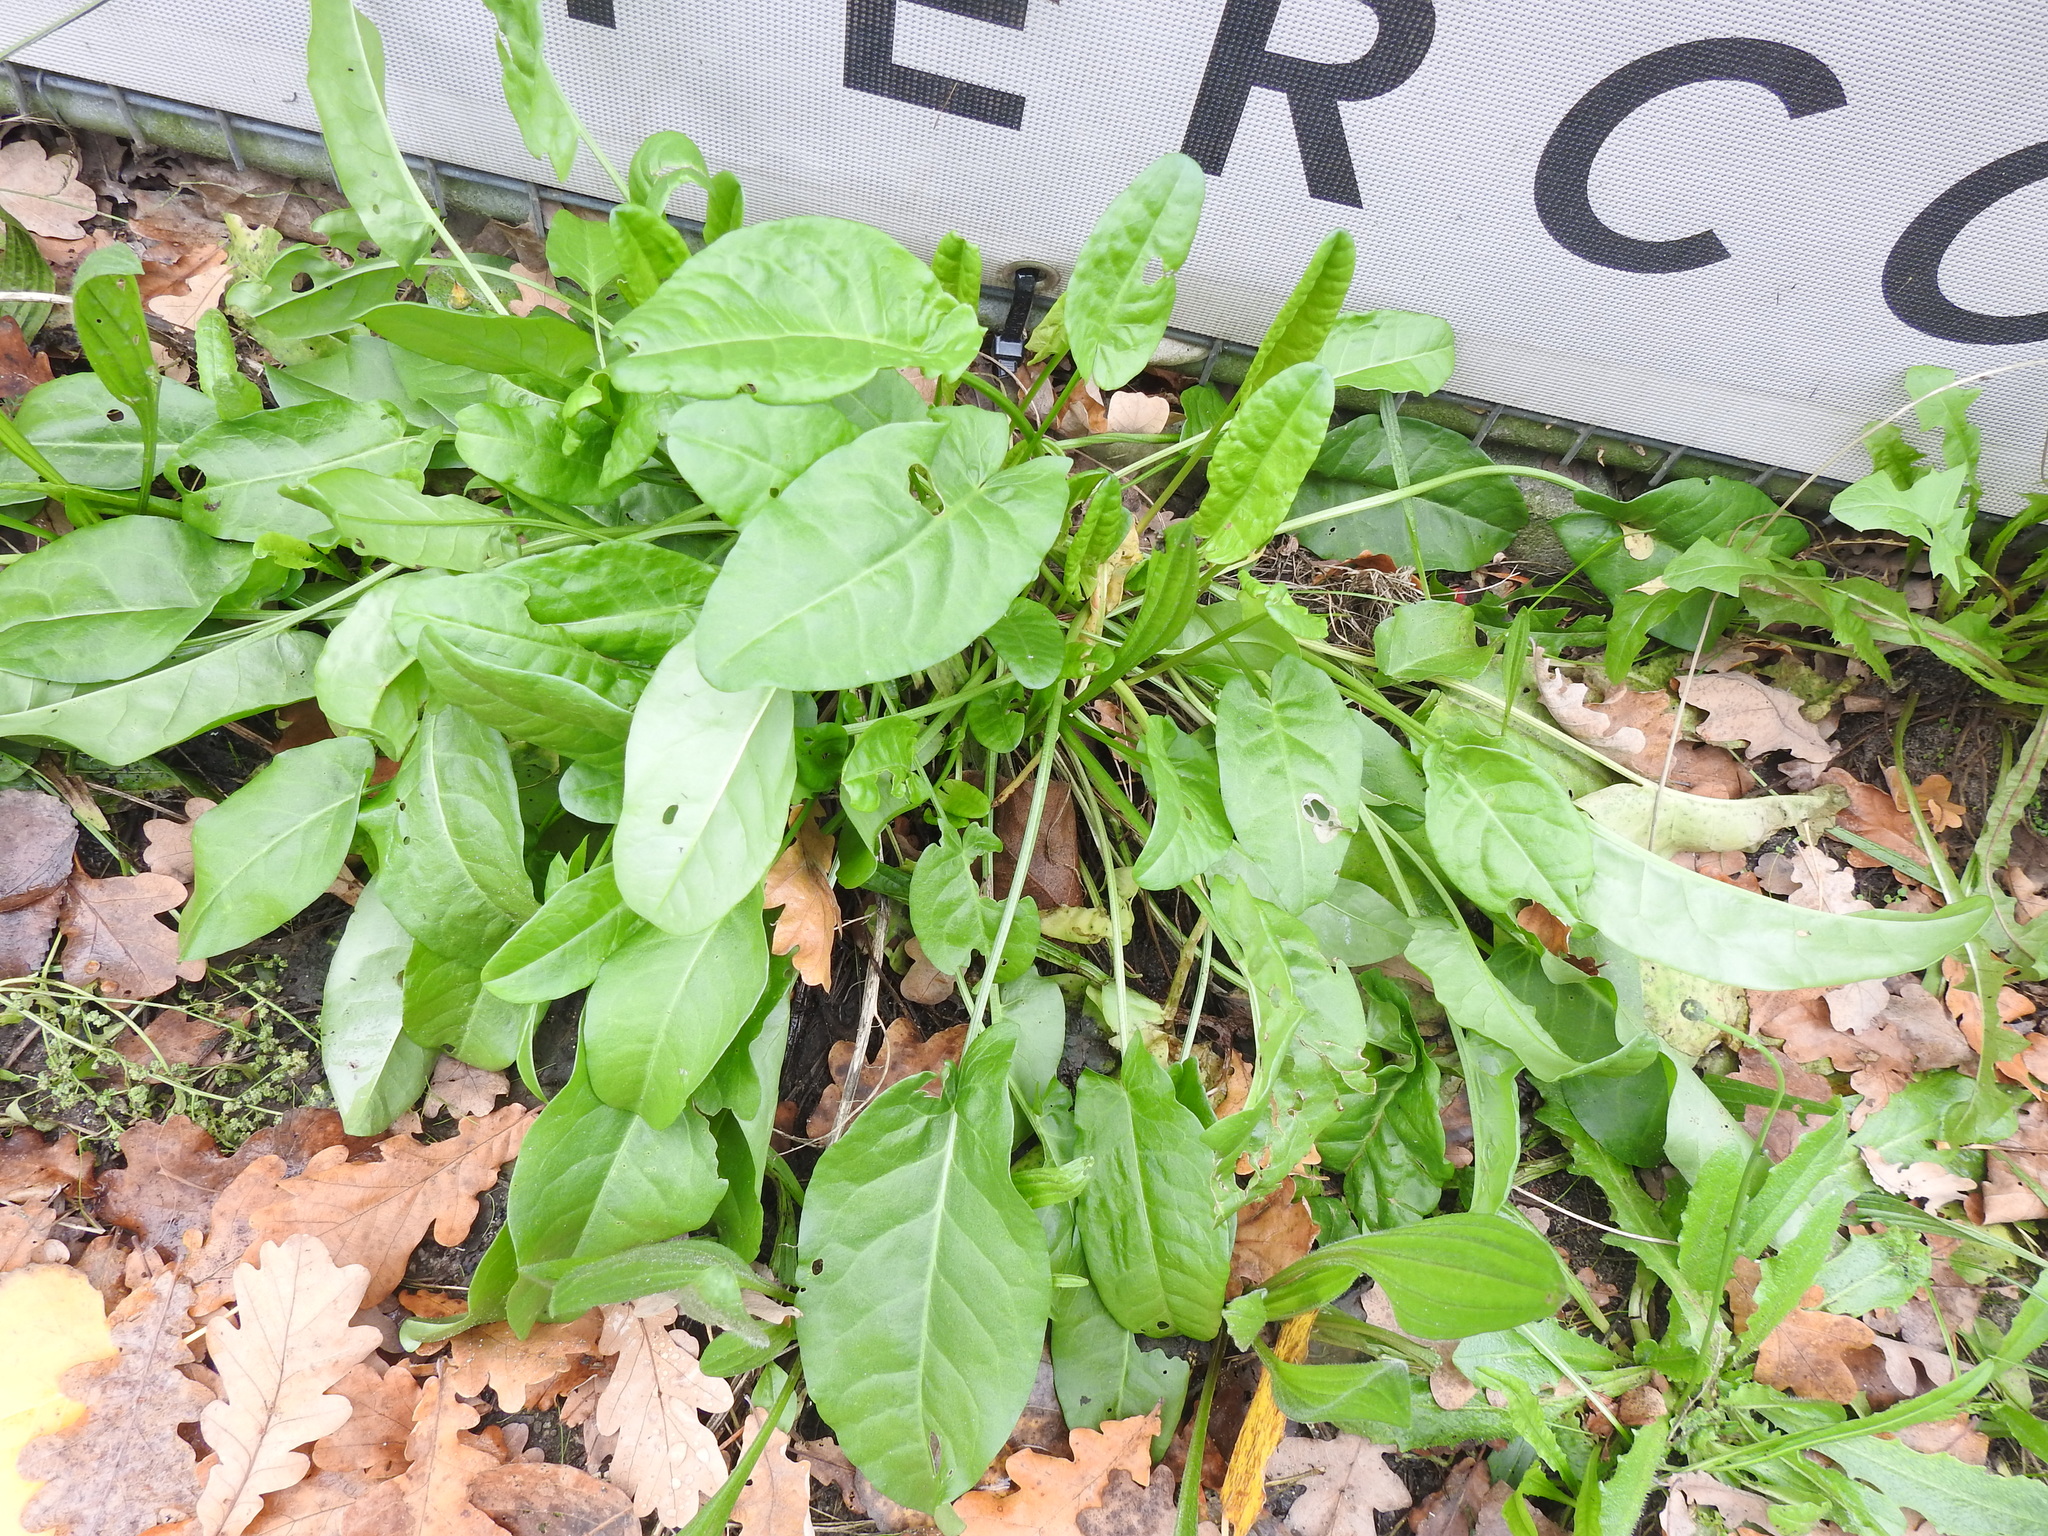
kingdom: Plantae
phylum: Tracheophyta
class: Magnoliopsida
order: Caryophyllales
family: Polygonaceae
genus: Rumex
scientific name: Rumex acetosa
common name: Garden sorrel
